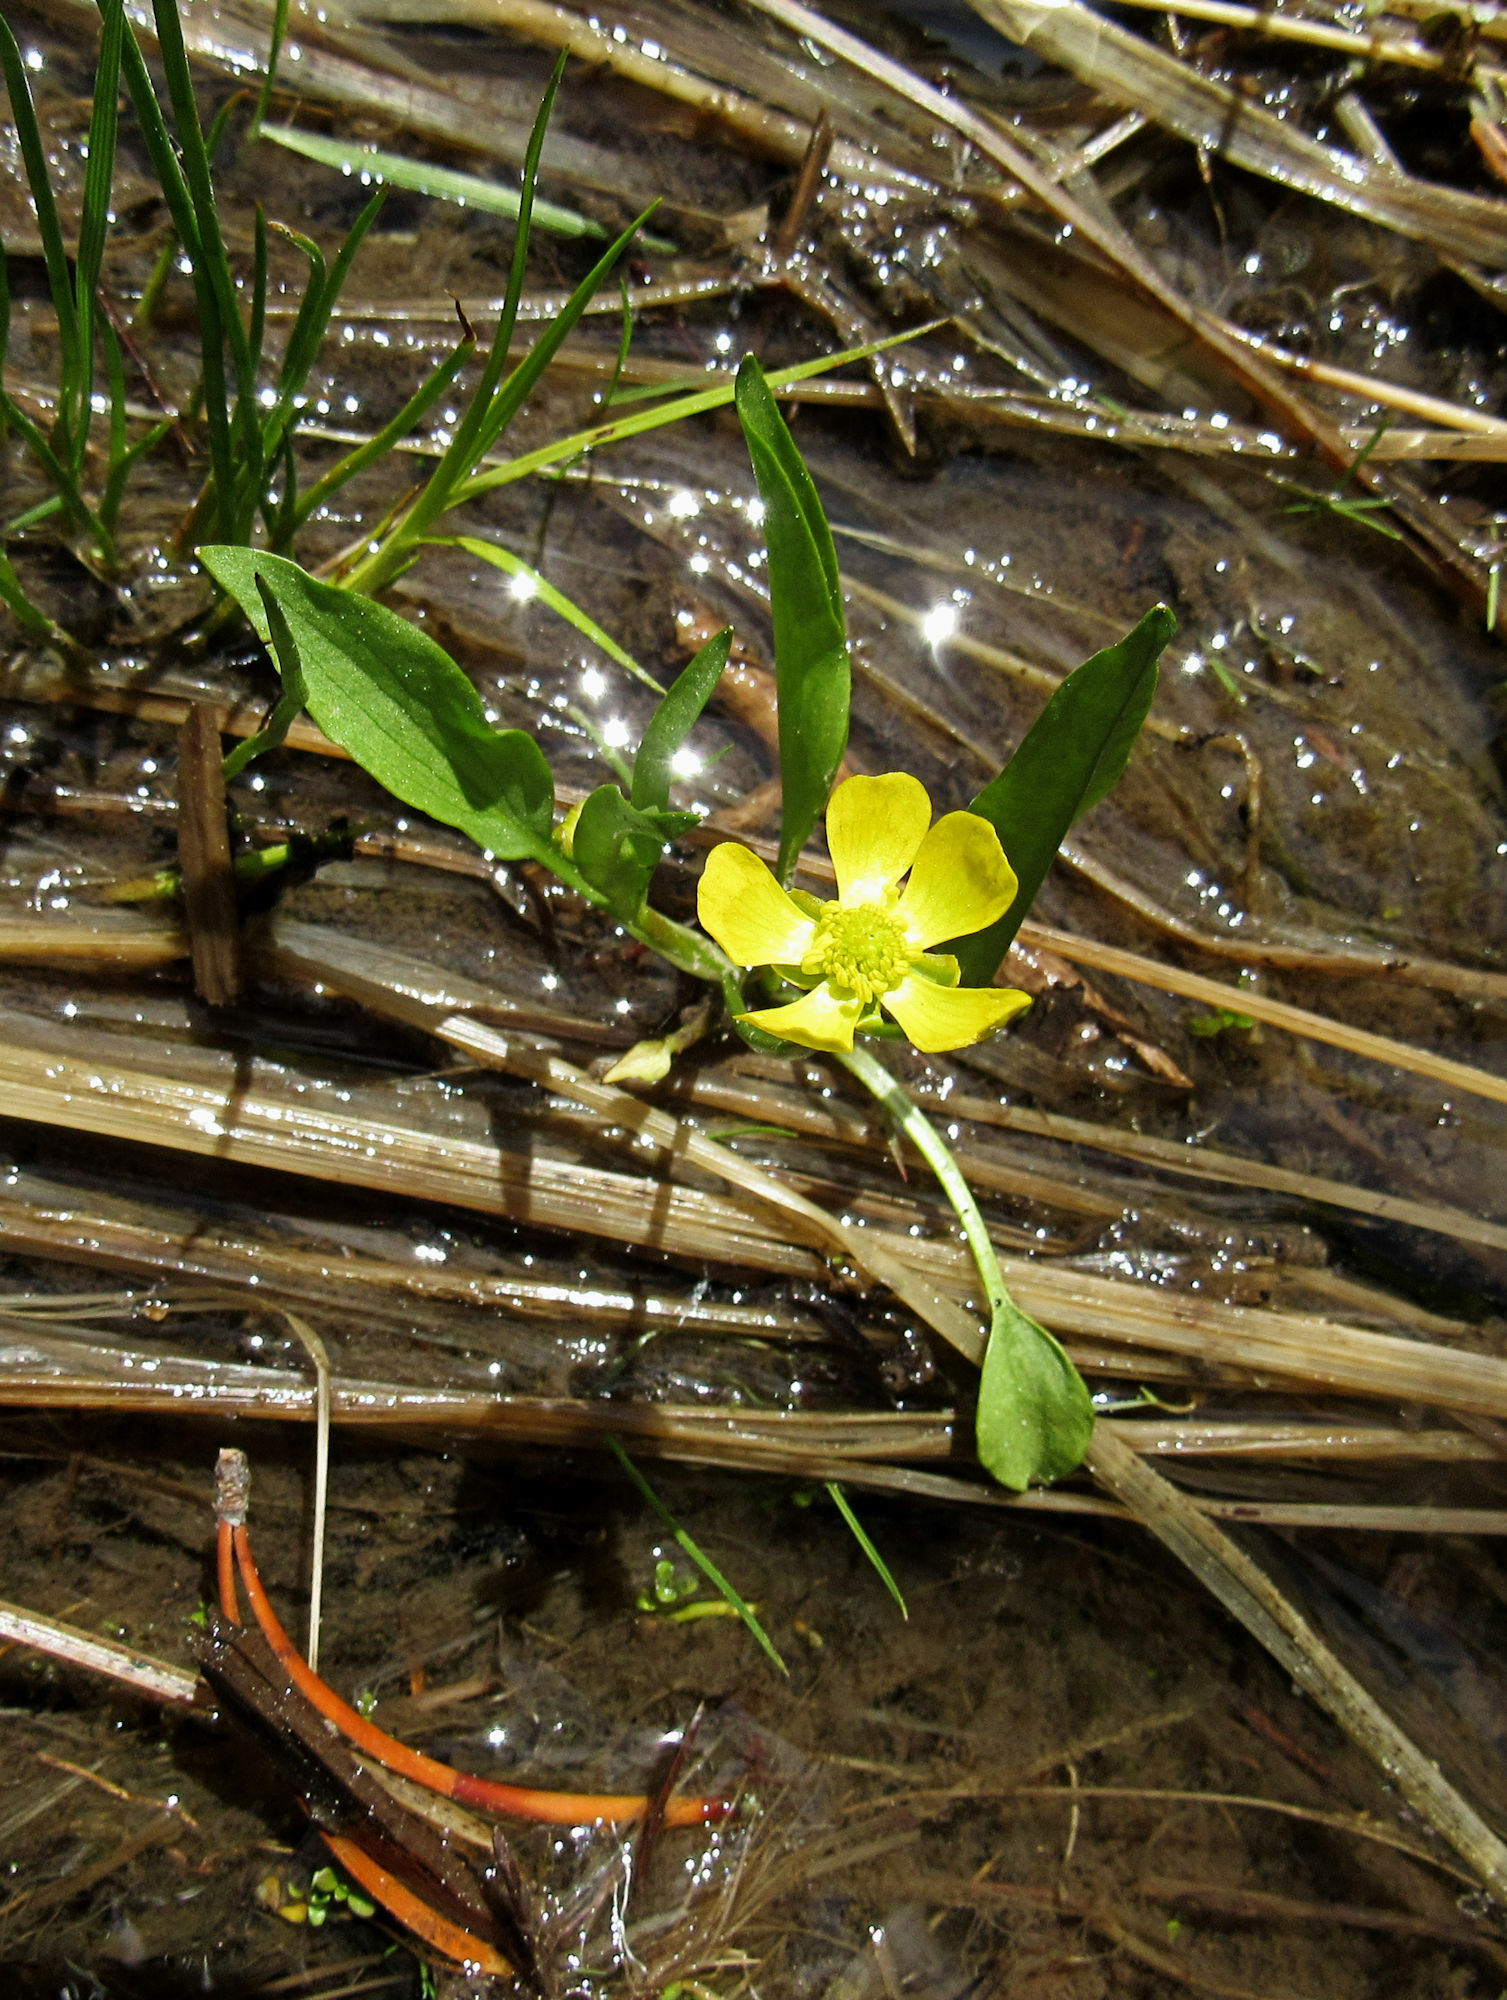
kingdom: Plantae
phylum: Tracheophyta
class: Magnoliopsida
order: Ranunculales
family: Ranunculaceae
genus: Ranunculus
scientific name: Ranunculus alismifolius
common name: Plantain-leaved buttercup
